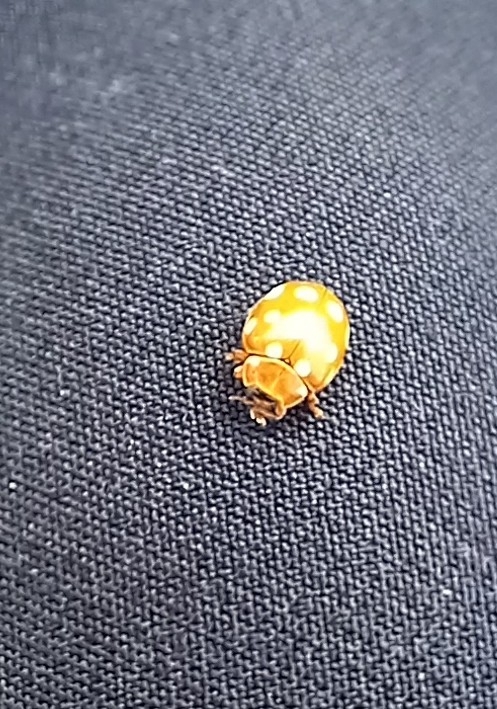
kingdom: Animalia
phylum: Arthropoda
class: Insecta
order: Coleoptera
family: Coccinellidae
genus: Calvia
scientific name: Calvia quatuordecimguttata
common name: Cream-spot ladybird
